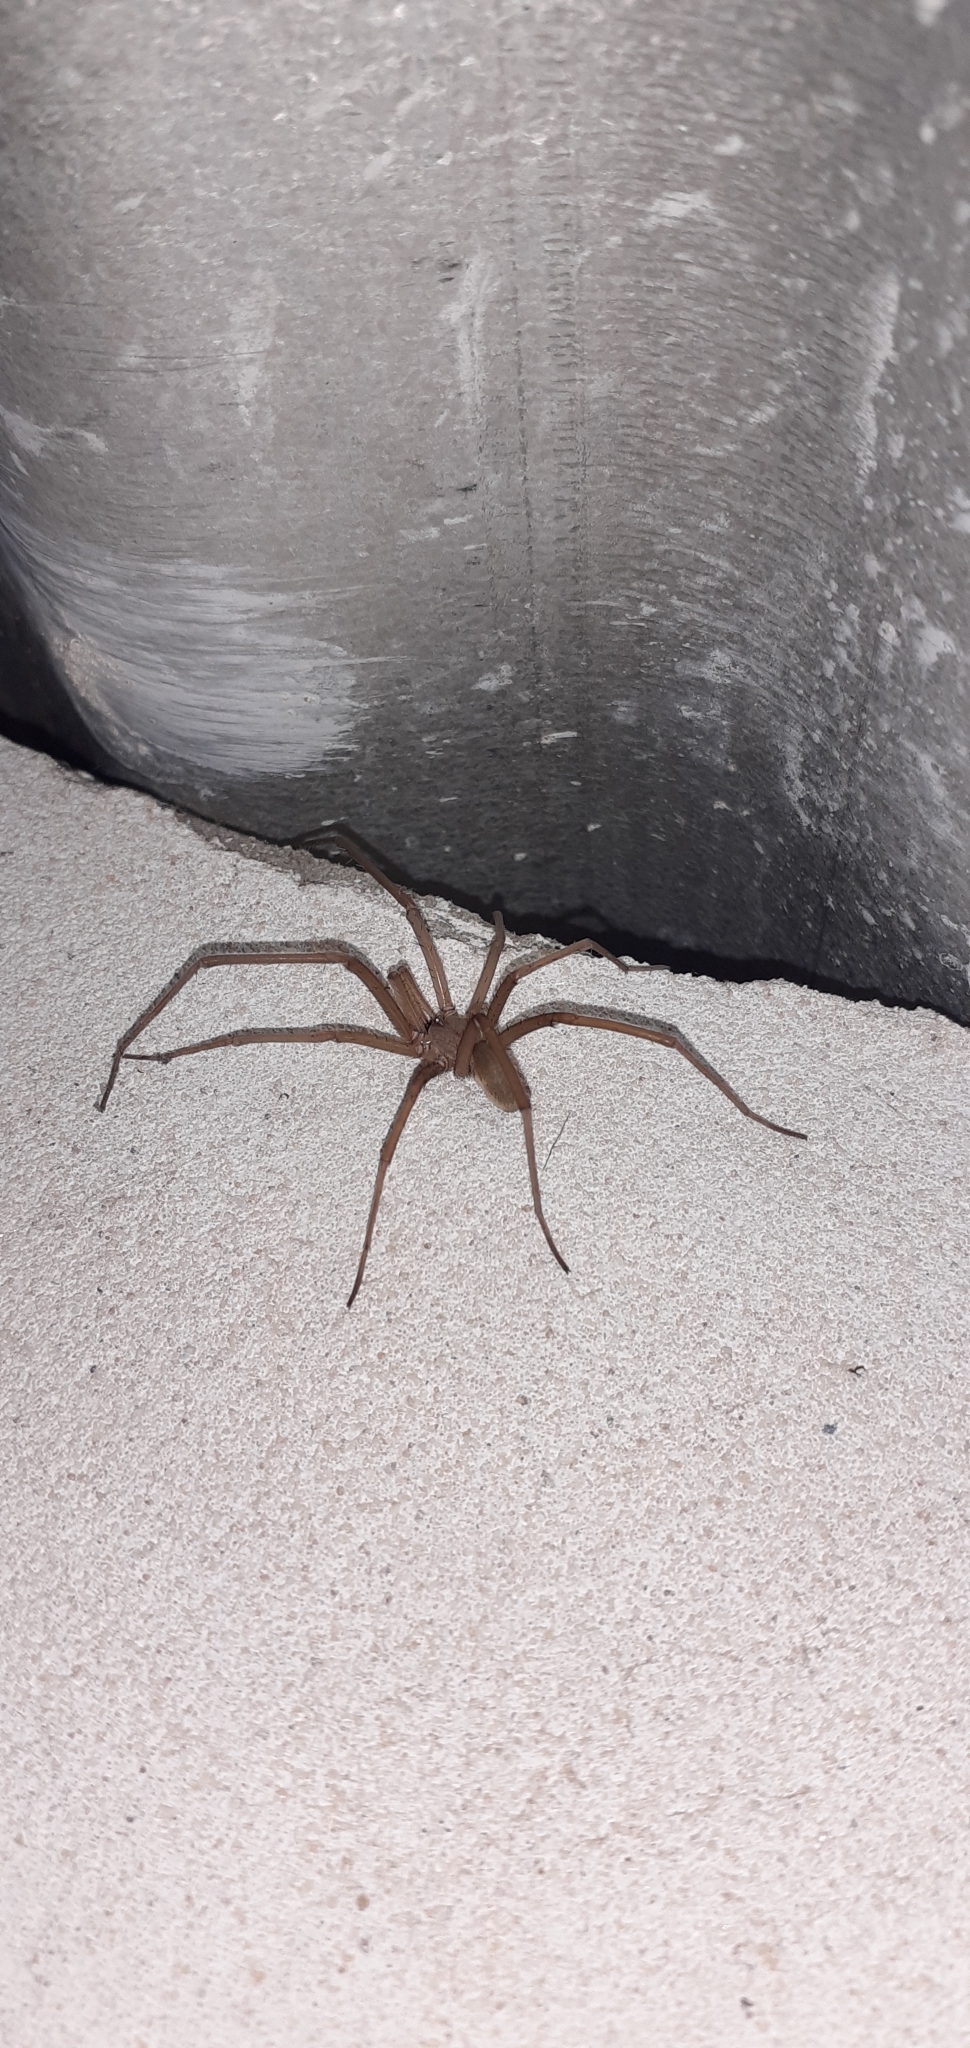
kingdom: Animalia
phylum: Arthropoda
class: Arachnida
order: Araneae
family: Filistatidae
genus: Kukulcania
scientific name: Kukulcania hibernalis
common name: Crevice weaver
